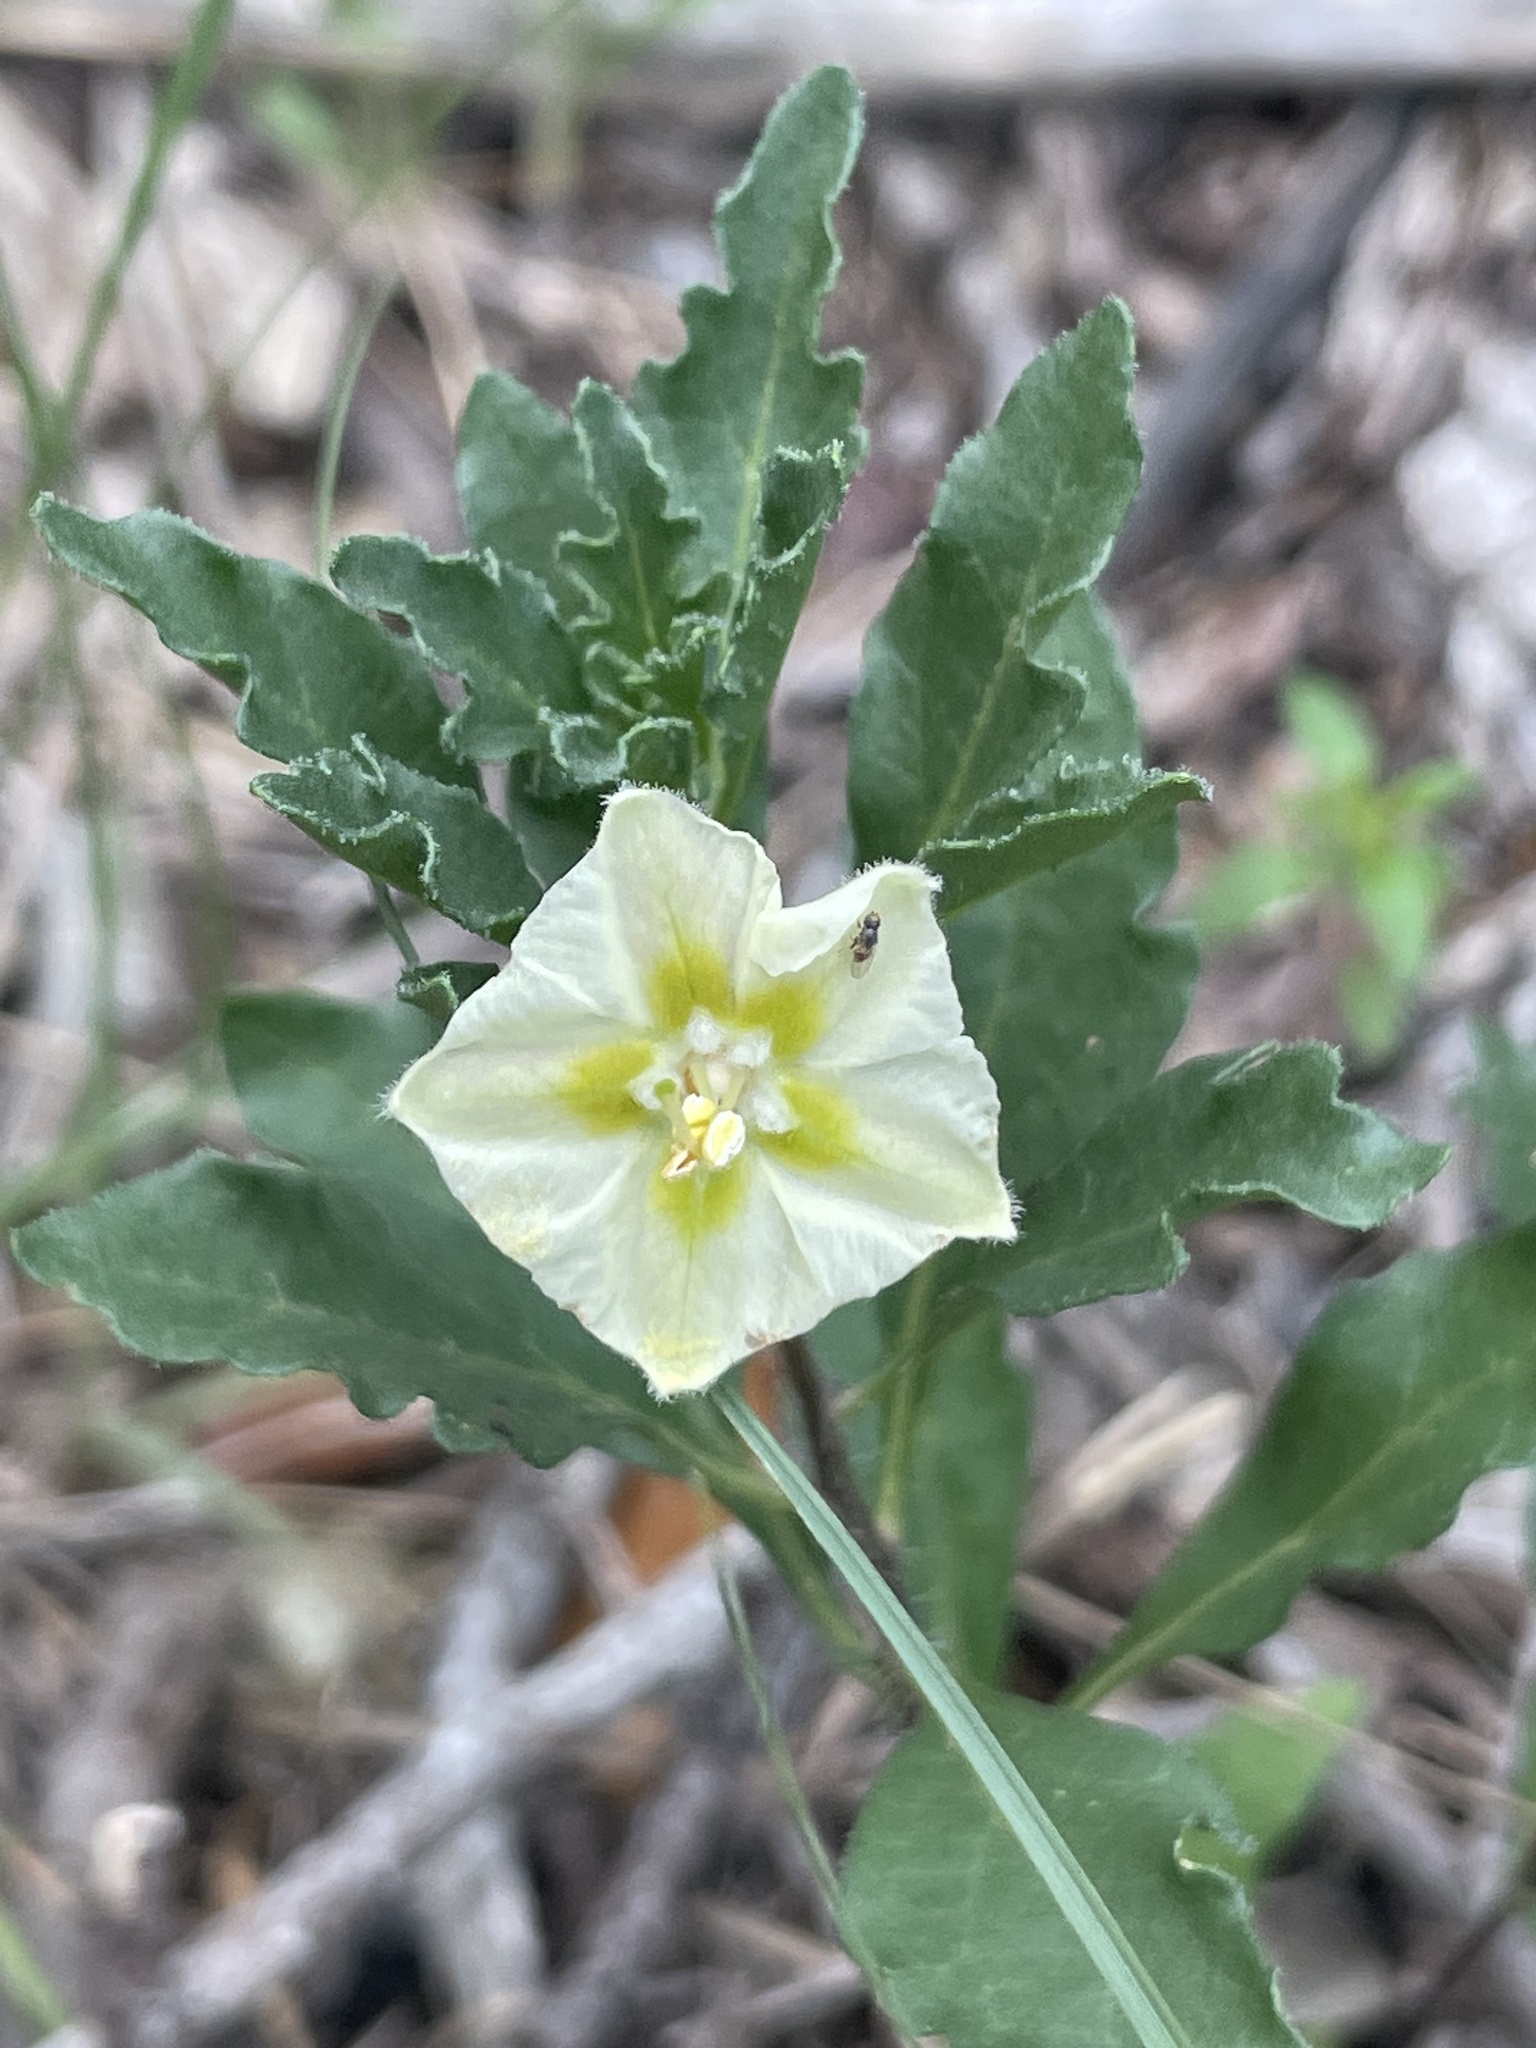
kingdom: Plantae
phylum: Tracheophyta
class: Magnoliopsida
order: Solanales
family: Solanaceae
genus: Chamaesaracha
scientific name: Chamaesaracha edwardsiana
